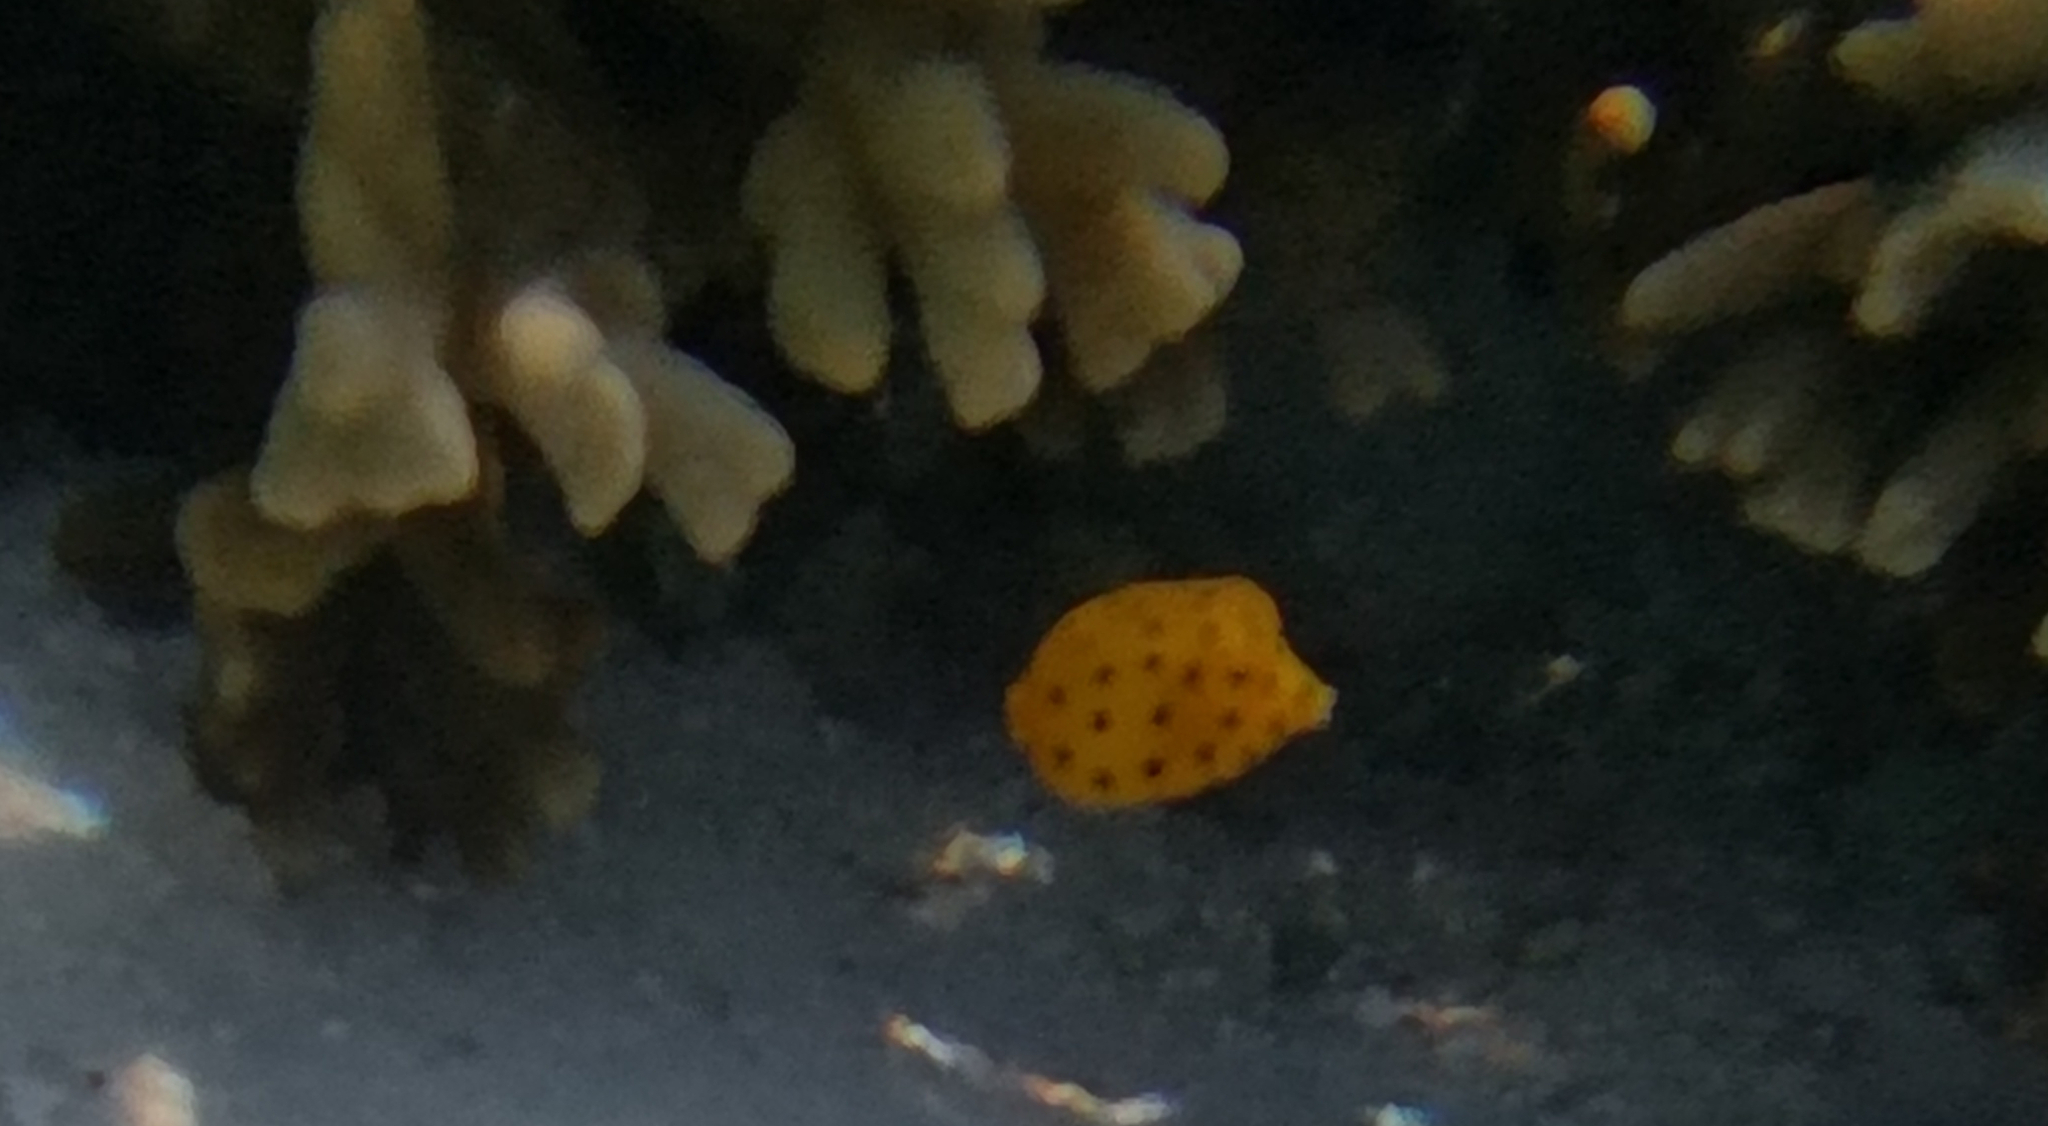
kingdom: Animalia
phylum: Chordata
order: Tetraodontiformes
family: Ostraciidae
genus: Ostracion
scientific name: Ostracion cubicus
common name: Cube trunkfish
